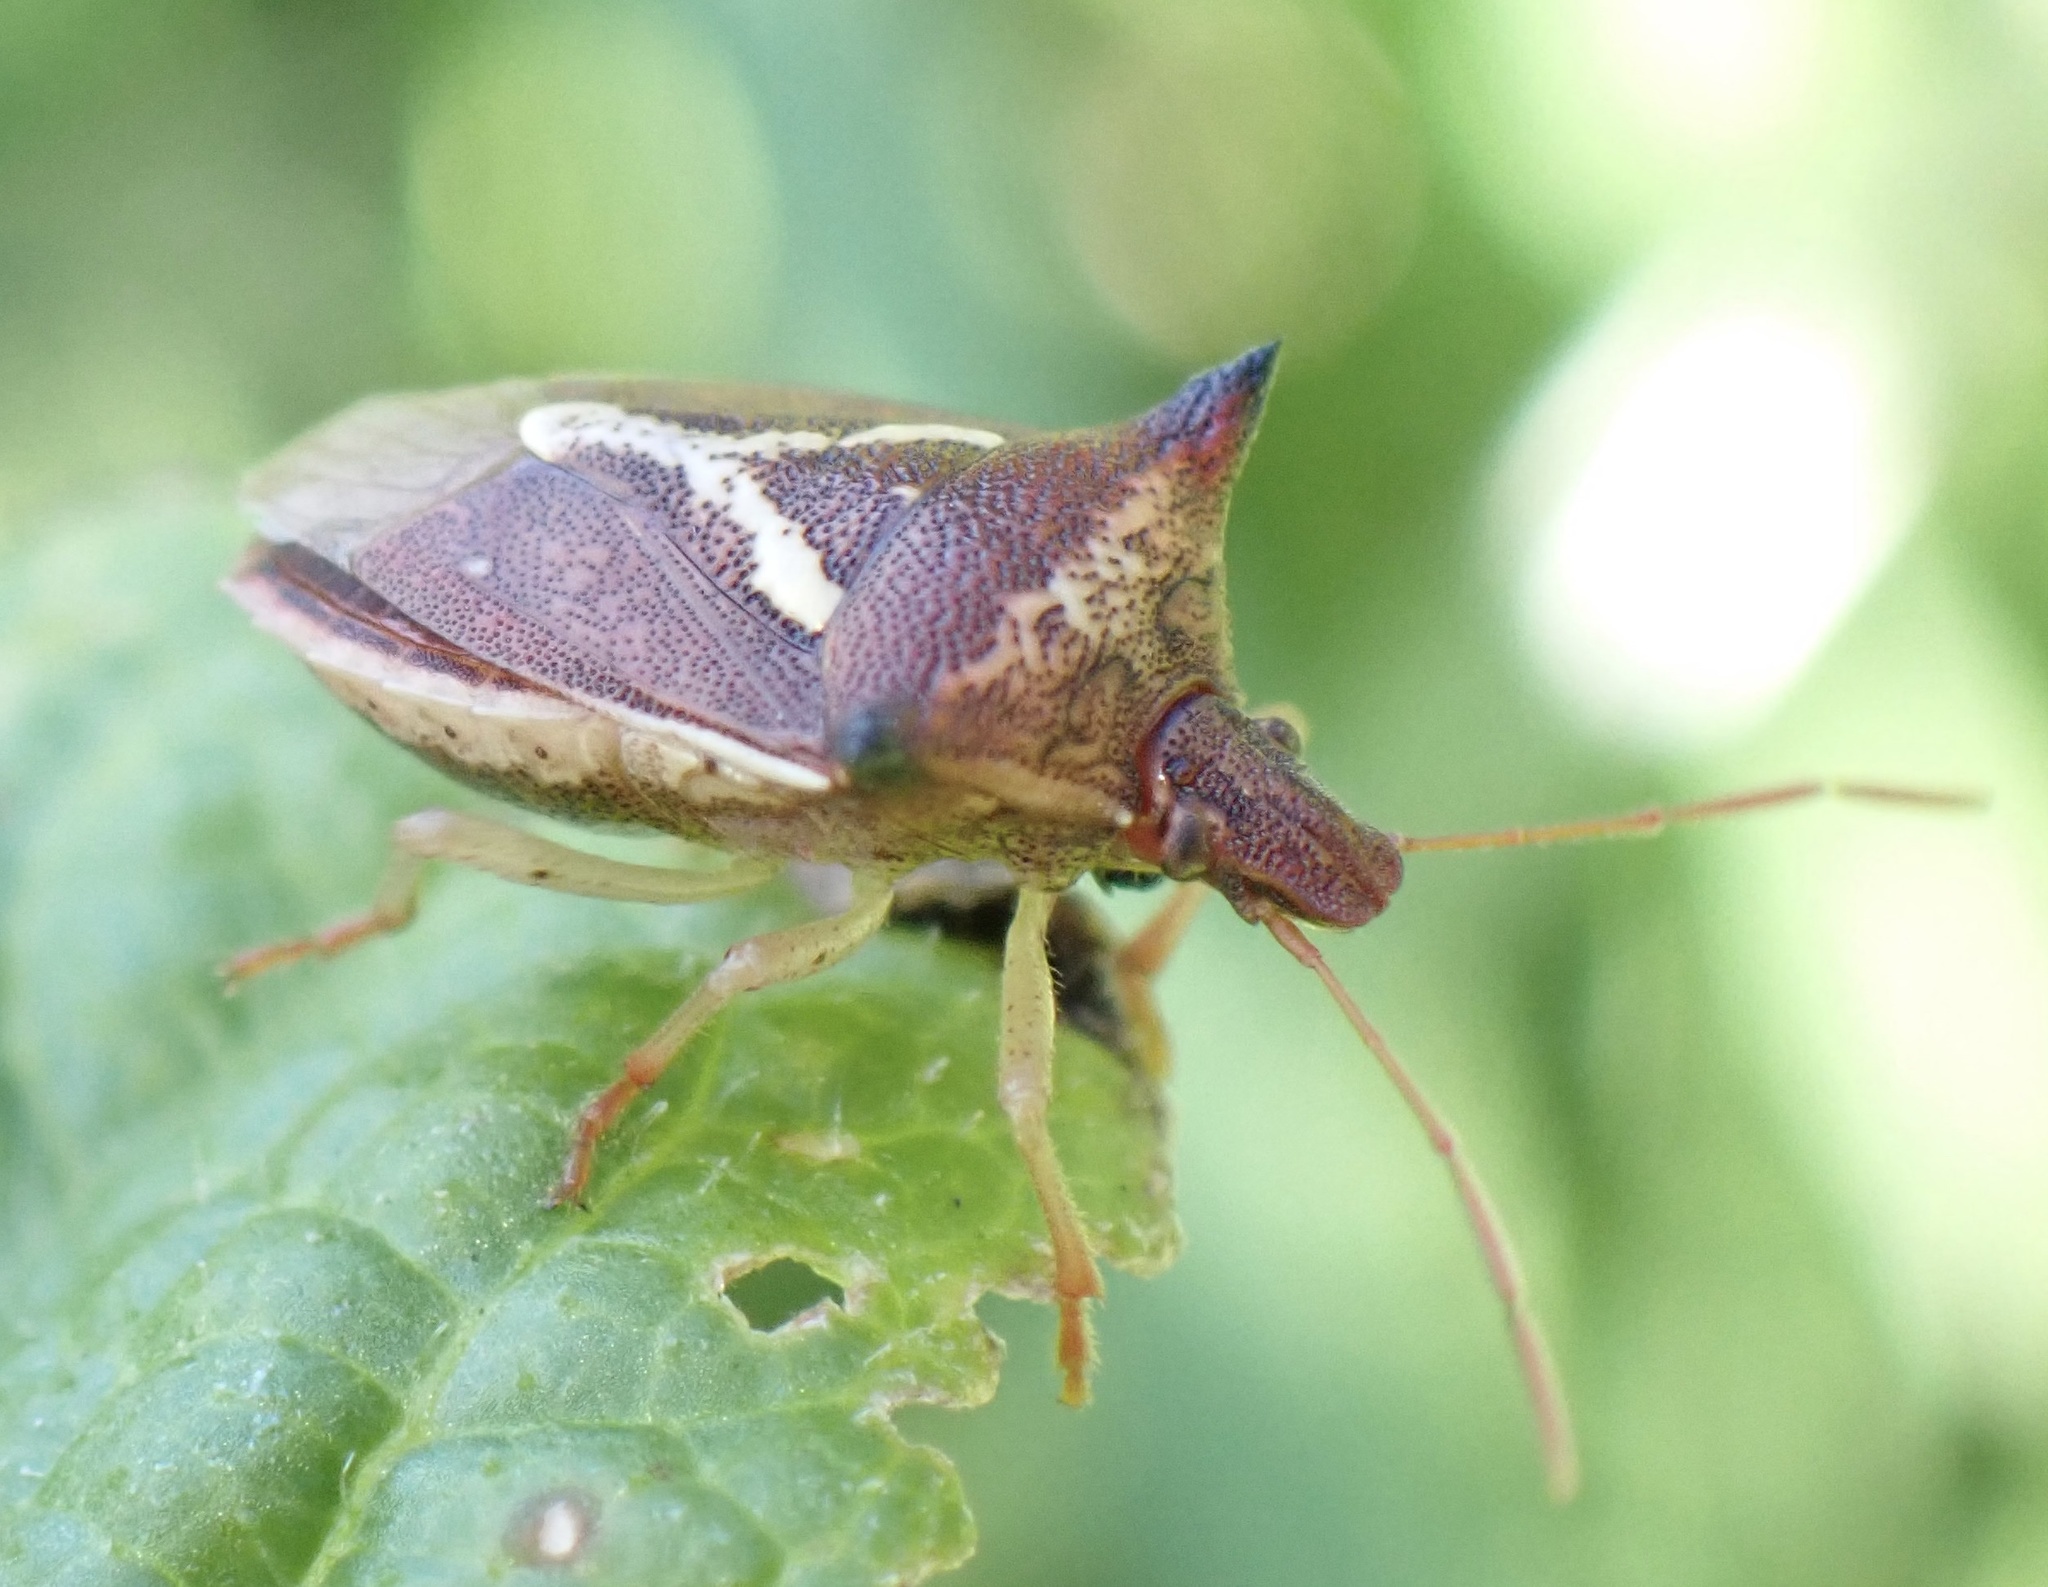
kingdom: Animalia
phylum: Arthropoda
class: Insecta
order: Hemiptera
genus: Durmia
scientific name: Durmia
